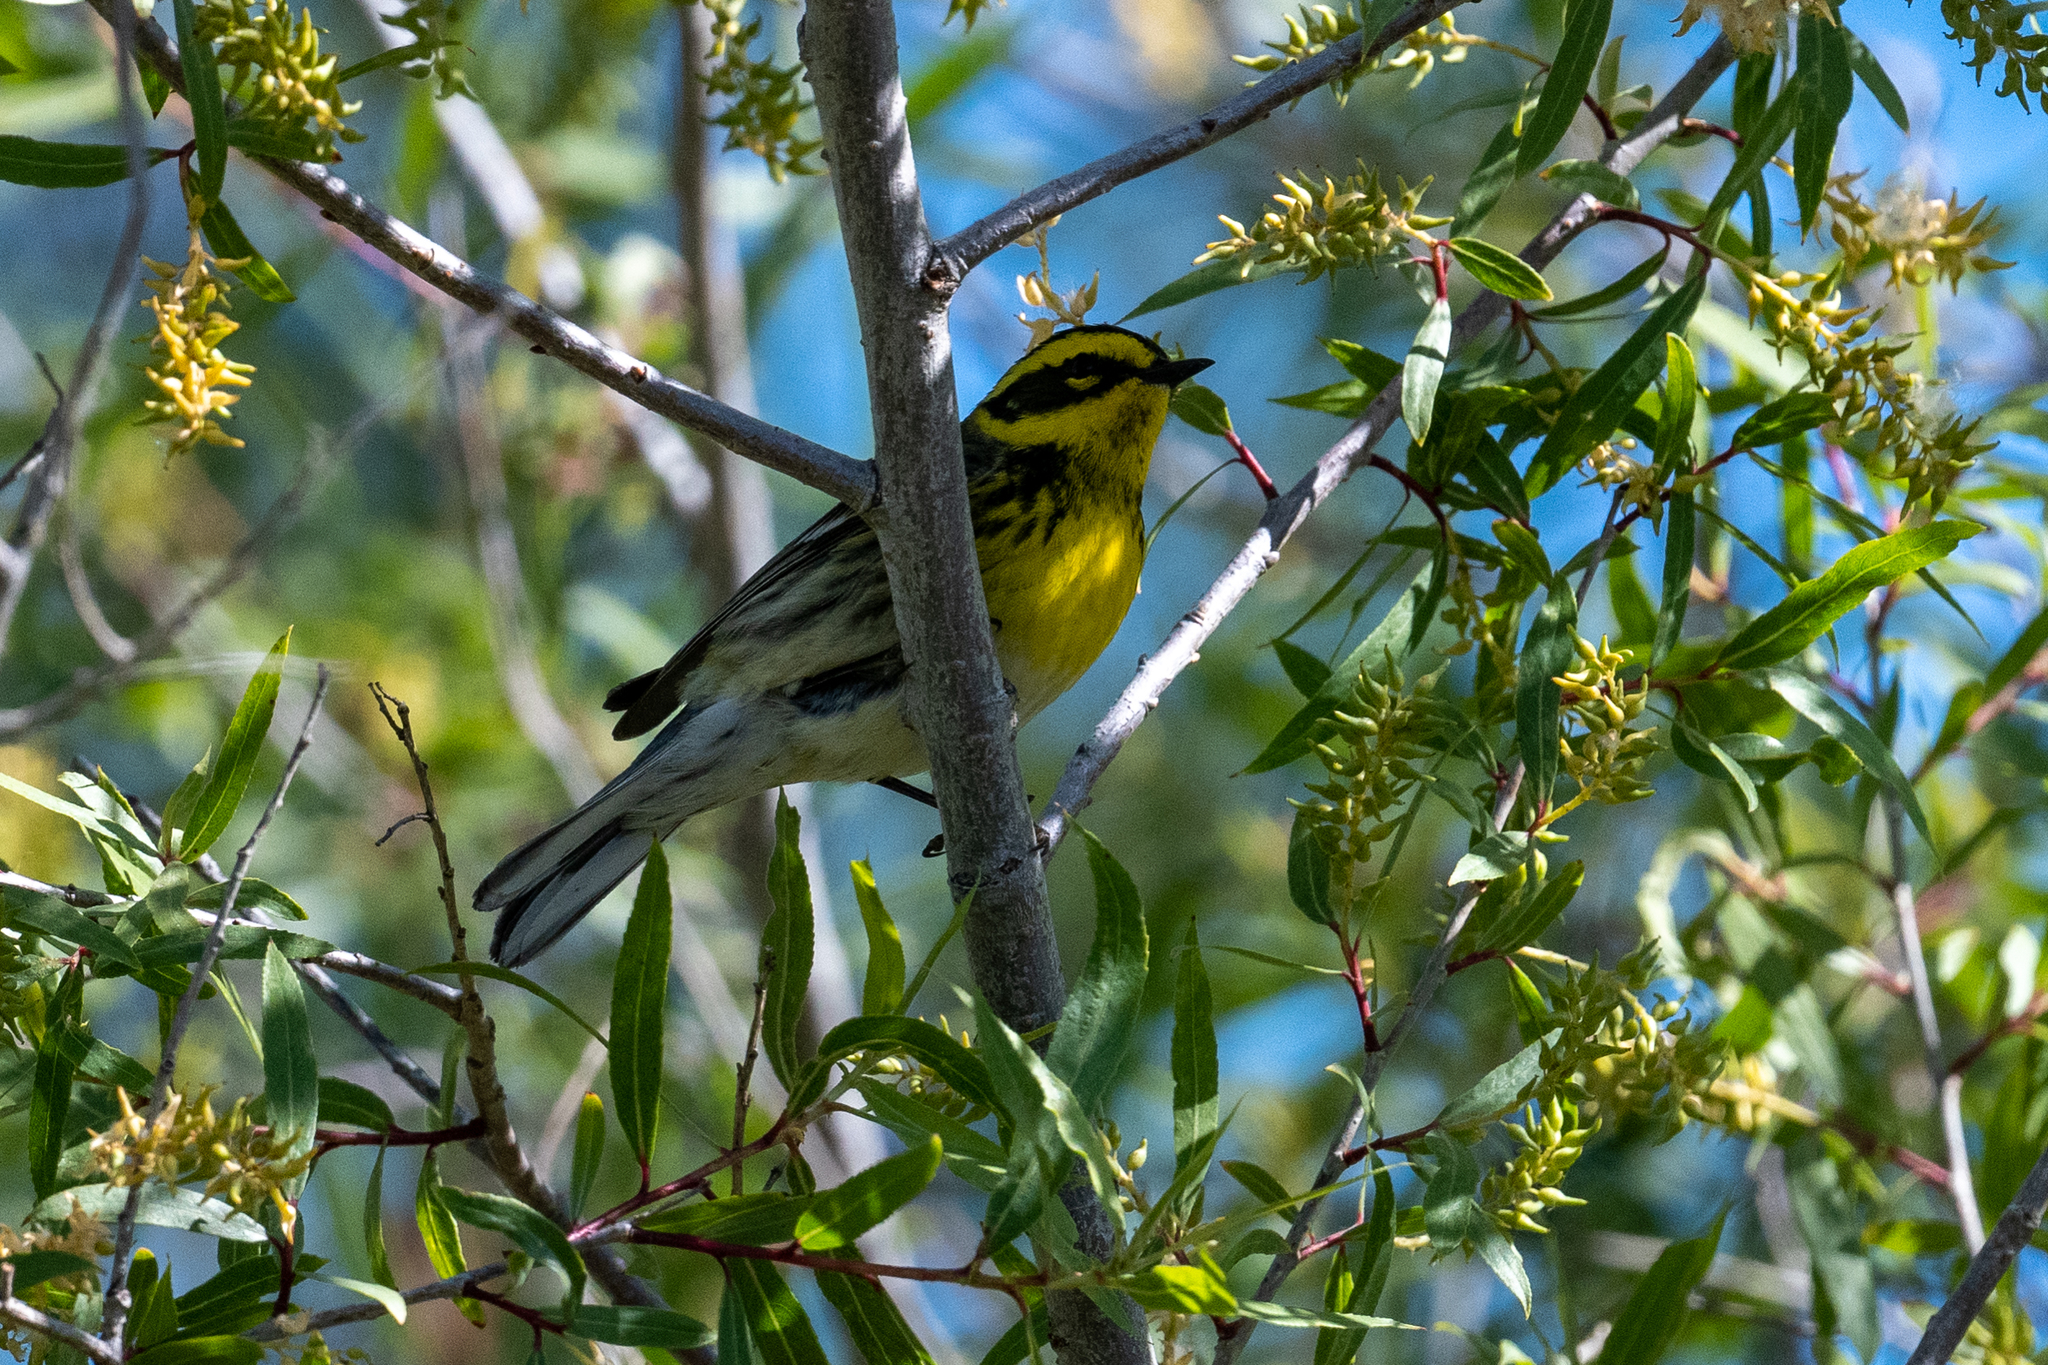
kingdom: Animalia
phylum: Chordata
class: Aves
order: Passeriformes
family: Parulidae
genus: Setophaga
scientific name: Setophaga townsendi
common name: Townsend's warbler
